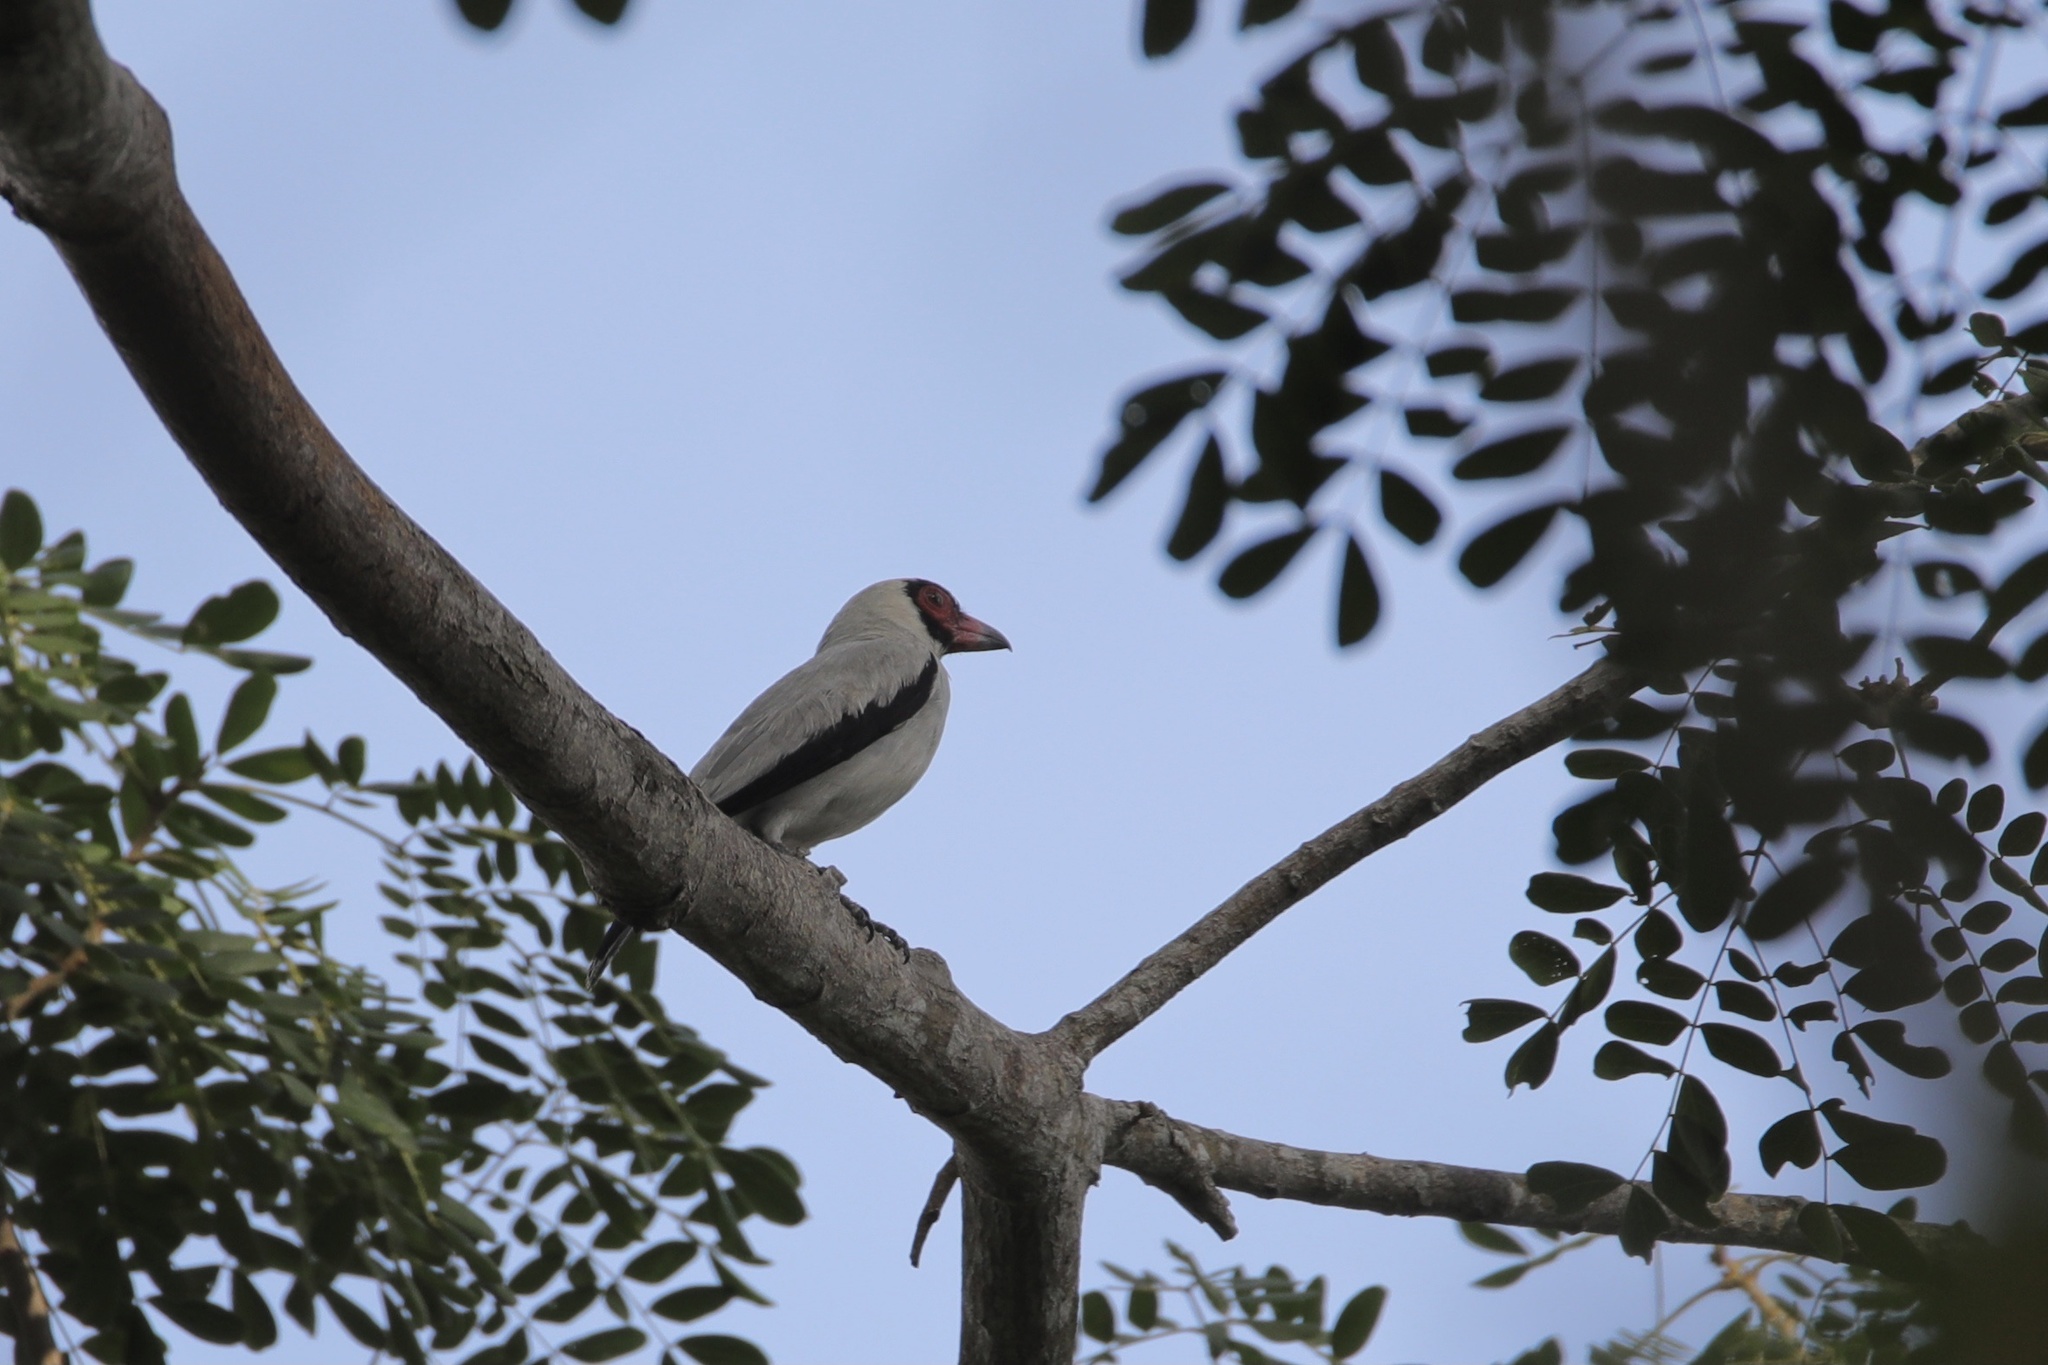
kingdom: Animalia
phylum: Chordata
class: Aves
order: Passeriformes
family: Cotingidae
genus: Tityra
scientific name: Tityra semifasciata
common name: Masked tityra
